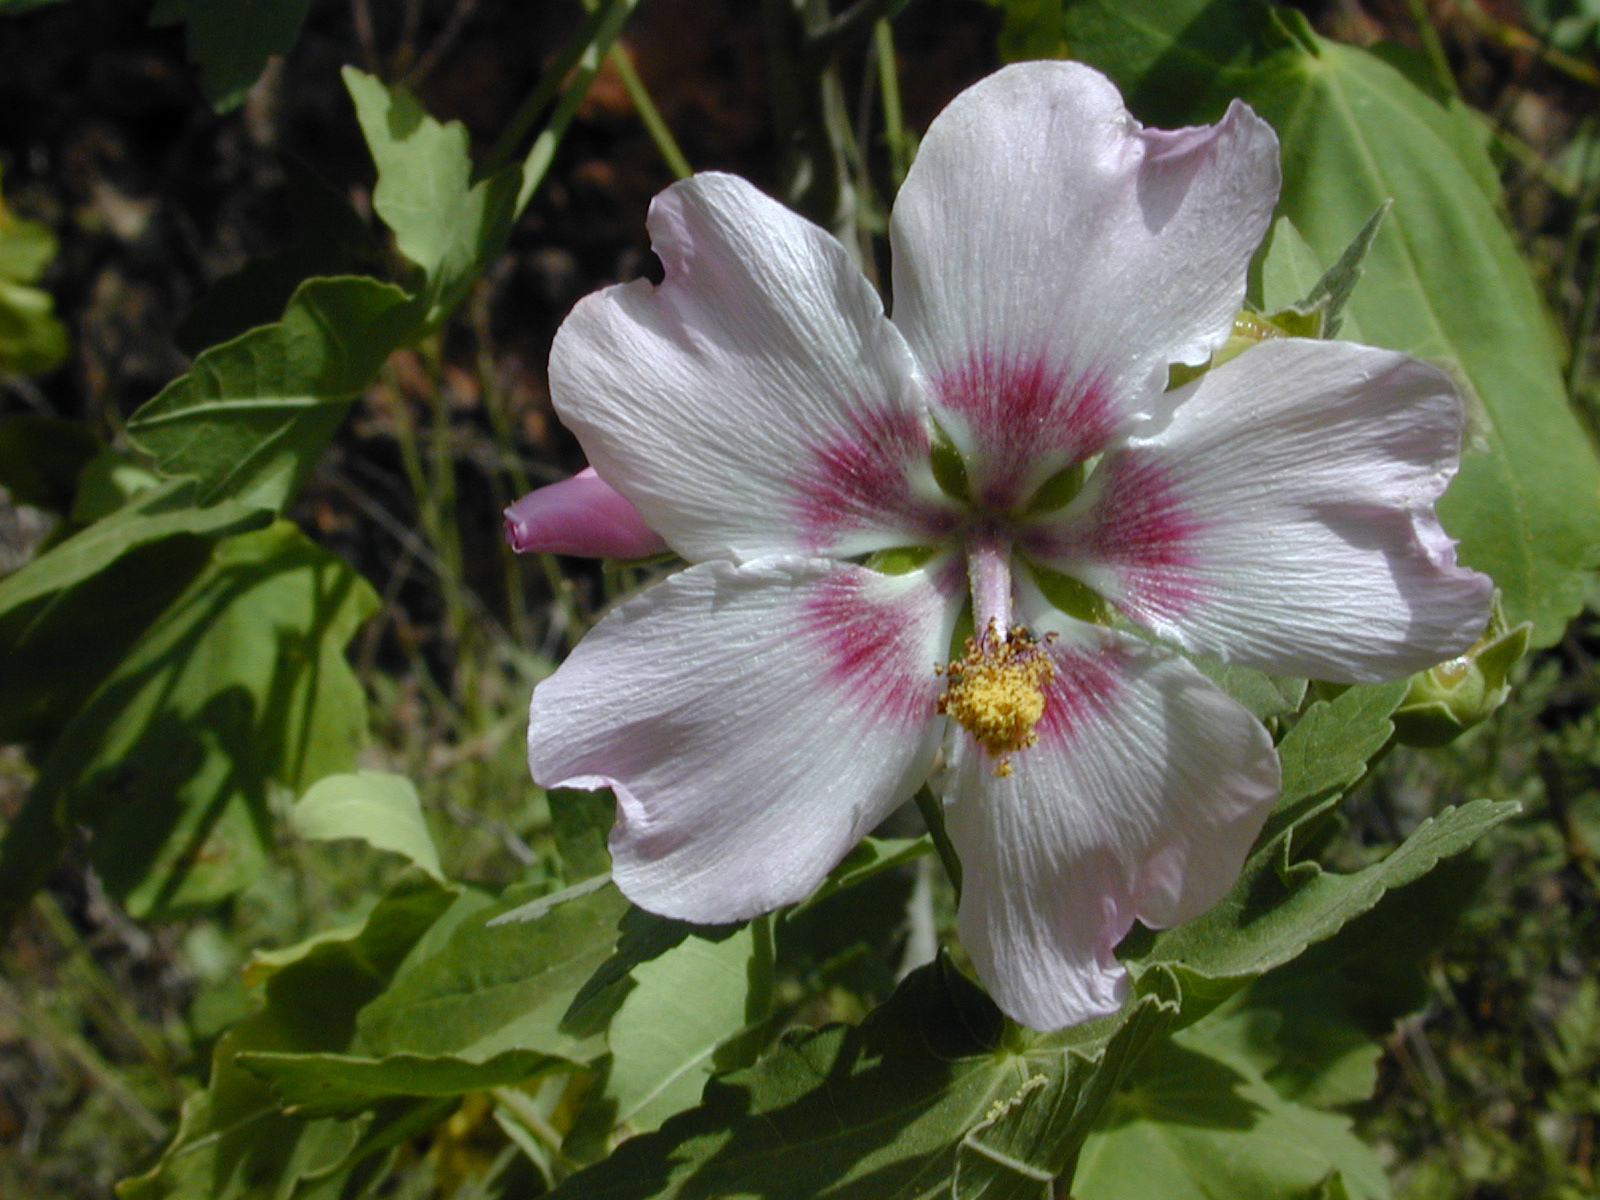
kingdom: Plantae
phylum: Tracheophyta
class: Magnoliopsida
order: Malvales
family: Malvaceae
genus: Malva
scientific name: Malva acerifolia
